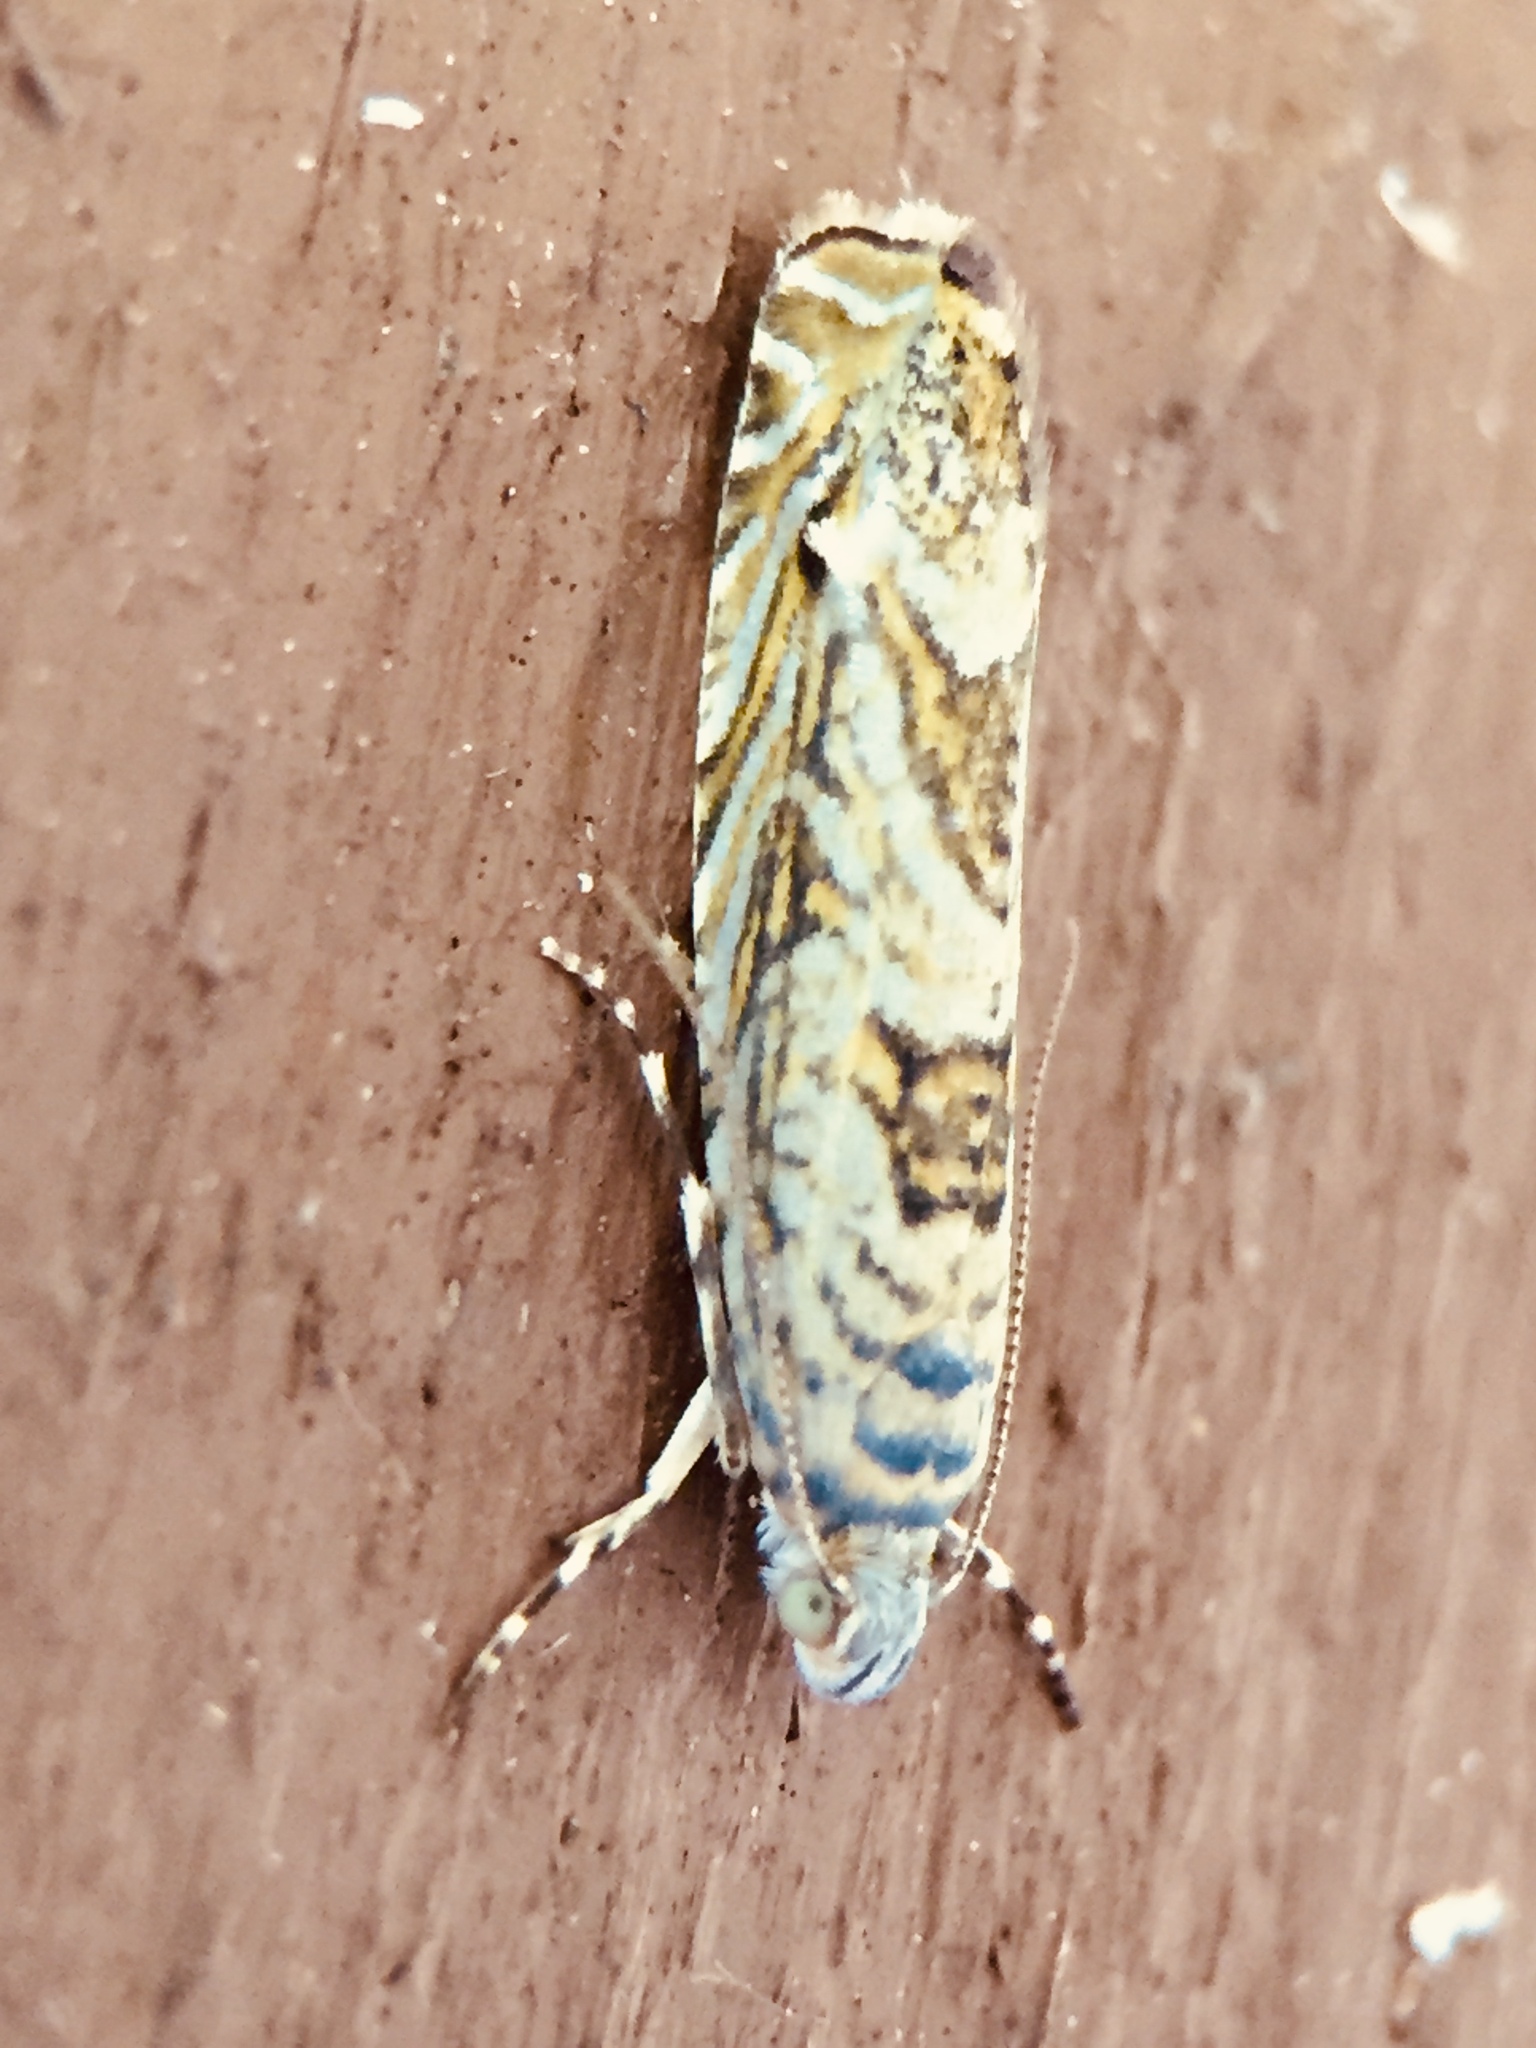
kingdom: Animalia
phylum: Arthropoda
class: Insecta
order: Lepidoptera
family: Plutellidae
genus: Doxophyrtis
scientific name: Doxophyrtis hydrocosma
